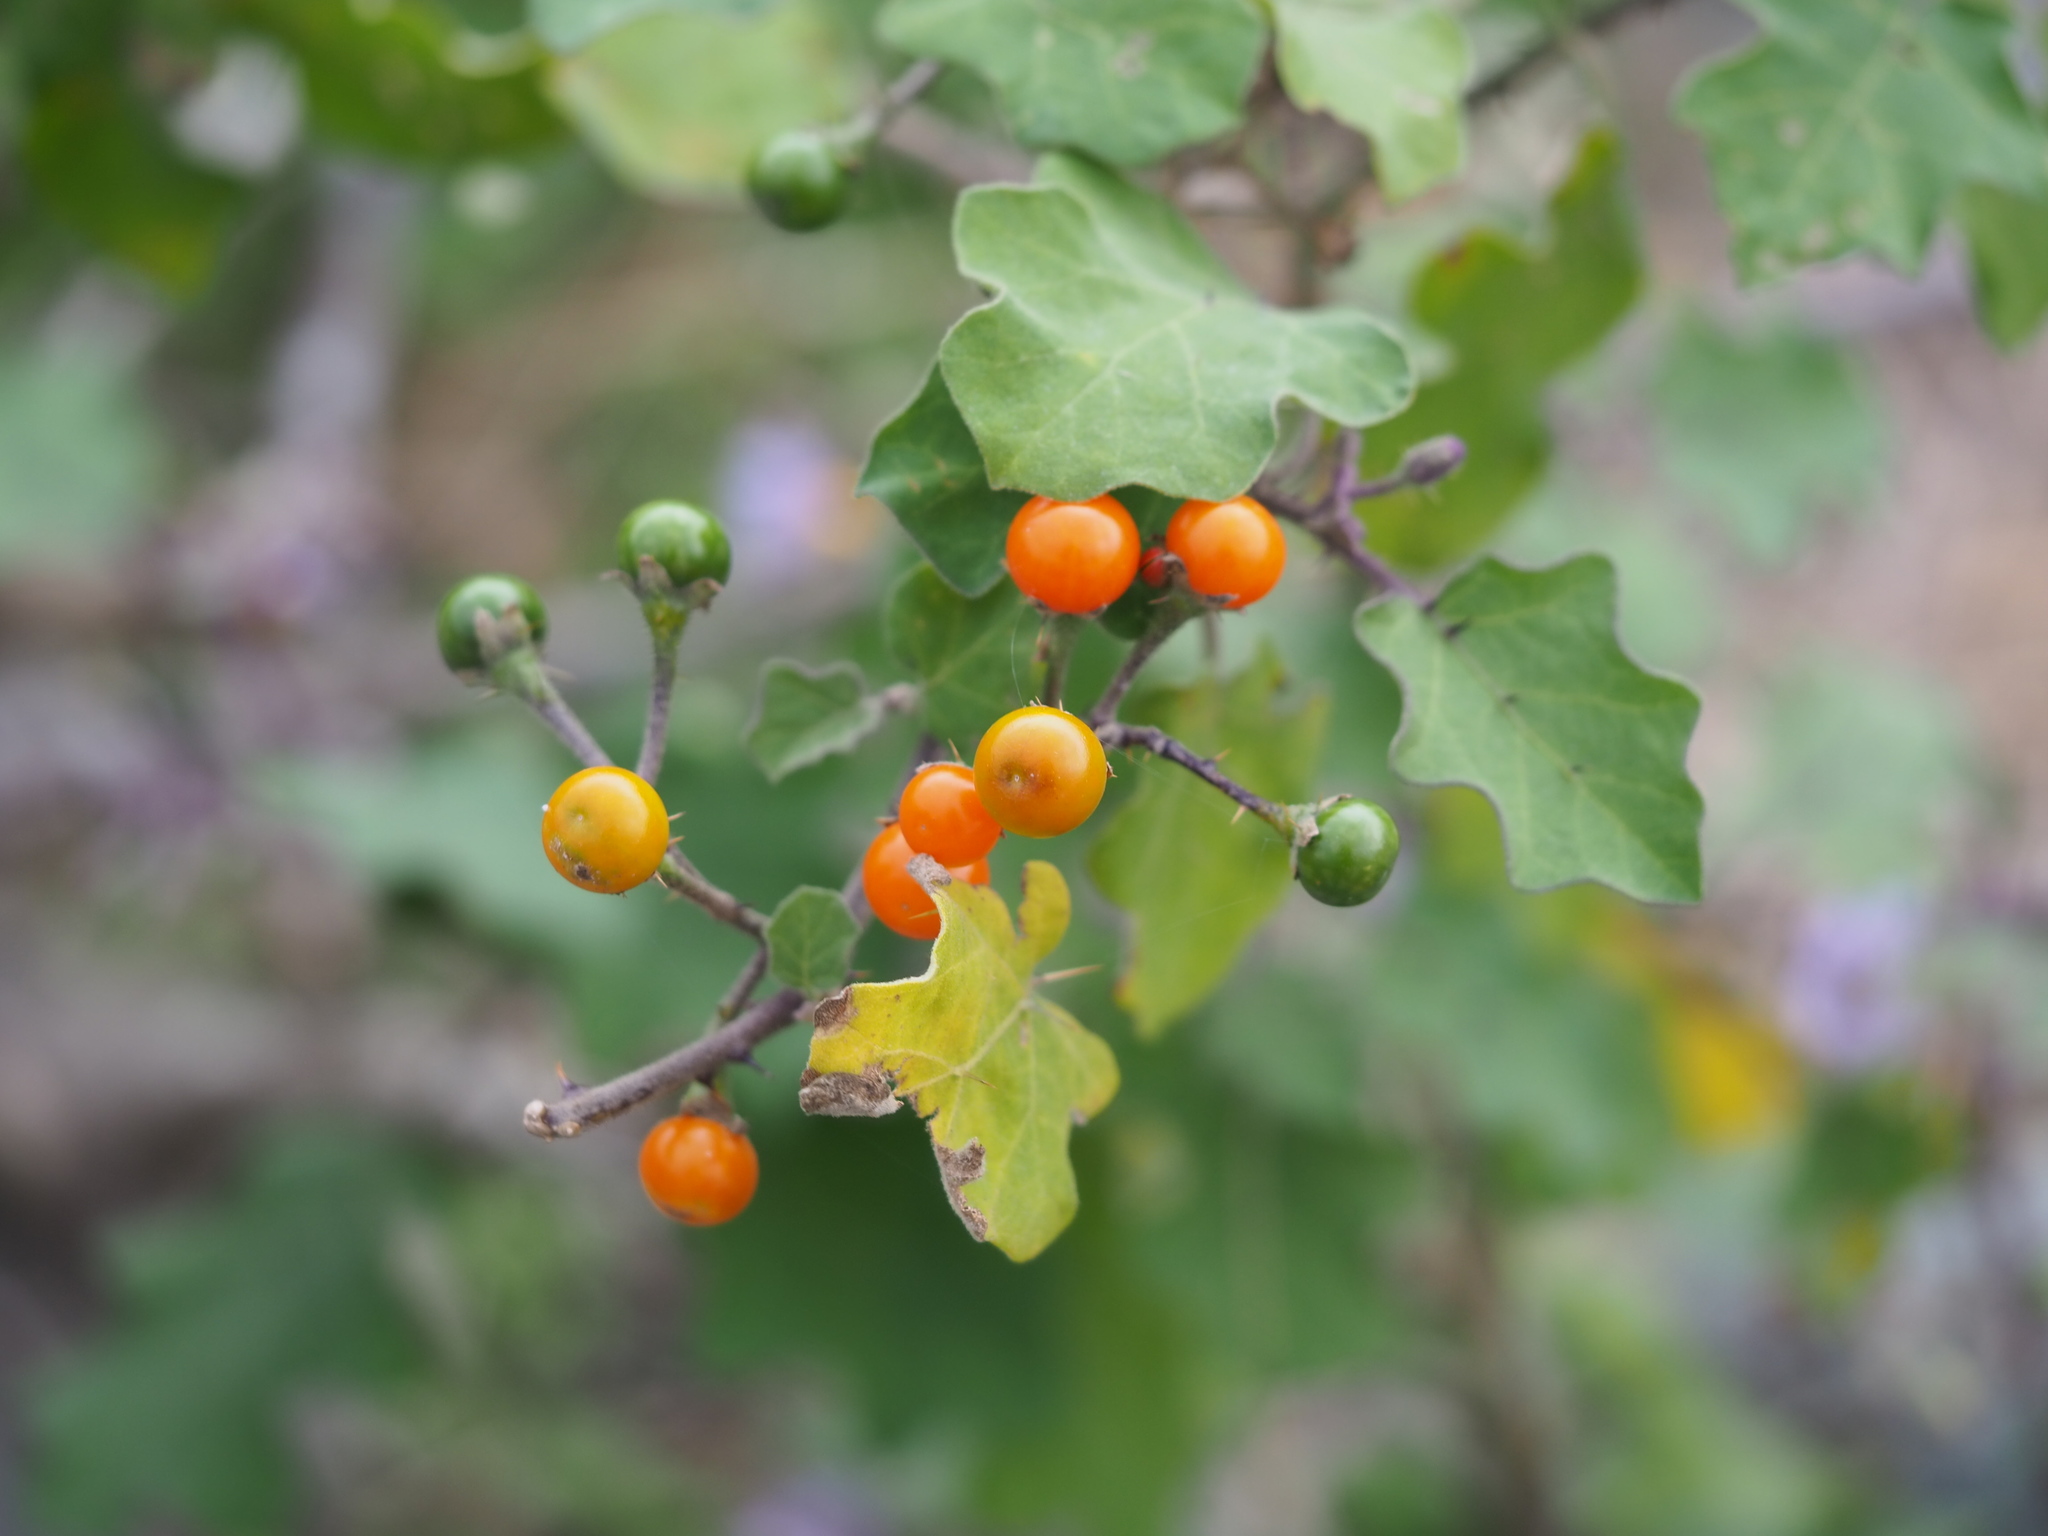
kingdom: Plantae
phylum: Tracheophyta
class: Magnoliopsida
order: Solanales
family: Solanaceae
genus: Solanum
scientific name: Solanum violaceum
